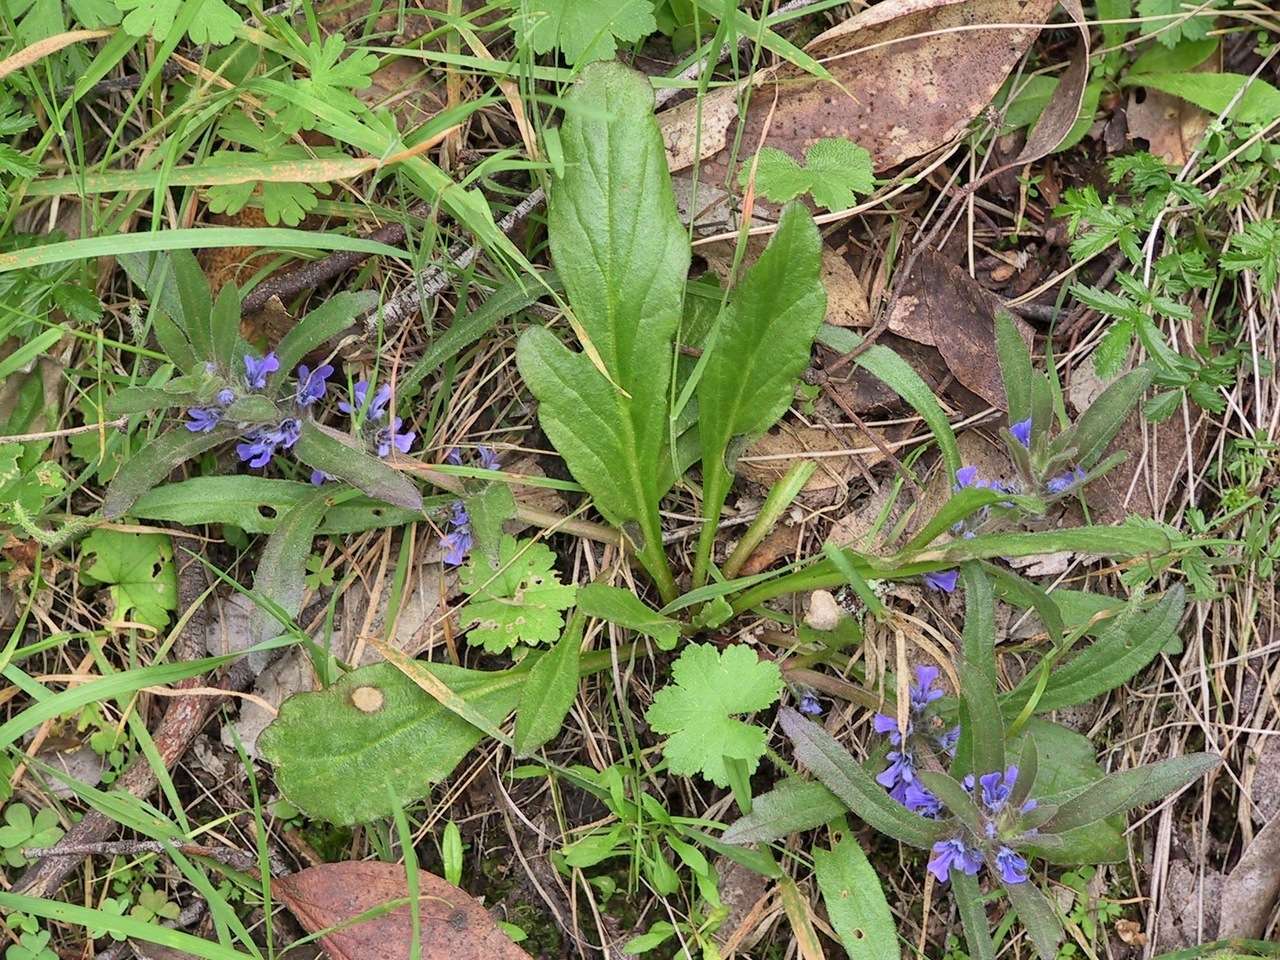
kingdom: Plantae
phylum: Tracheophyta
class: Magnoliopsida
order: Lamiales
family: Lamiaceae
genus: Ajuga
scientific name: Ajuga australis
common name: Australian bugle
